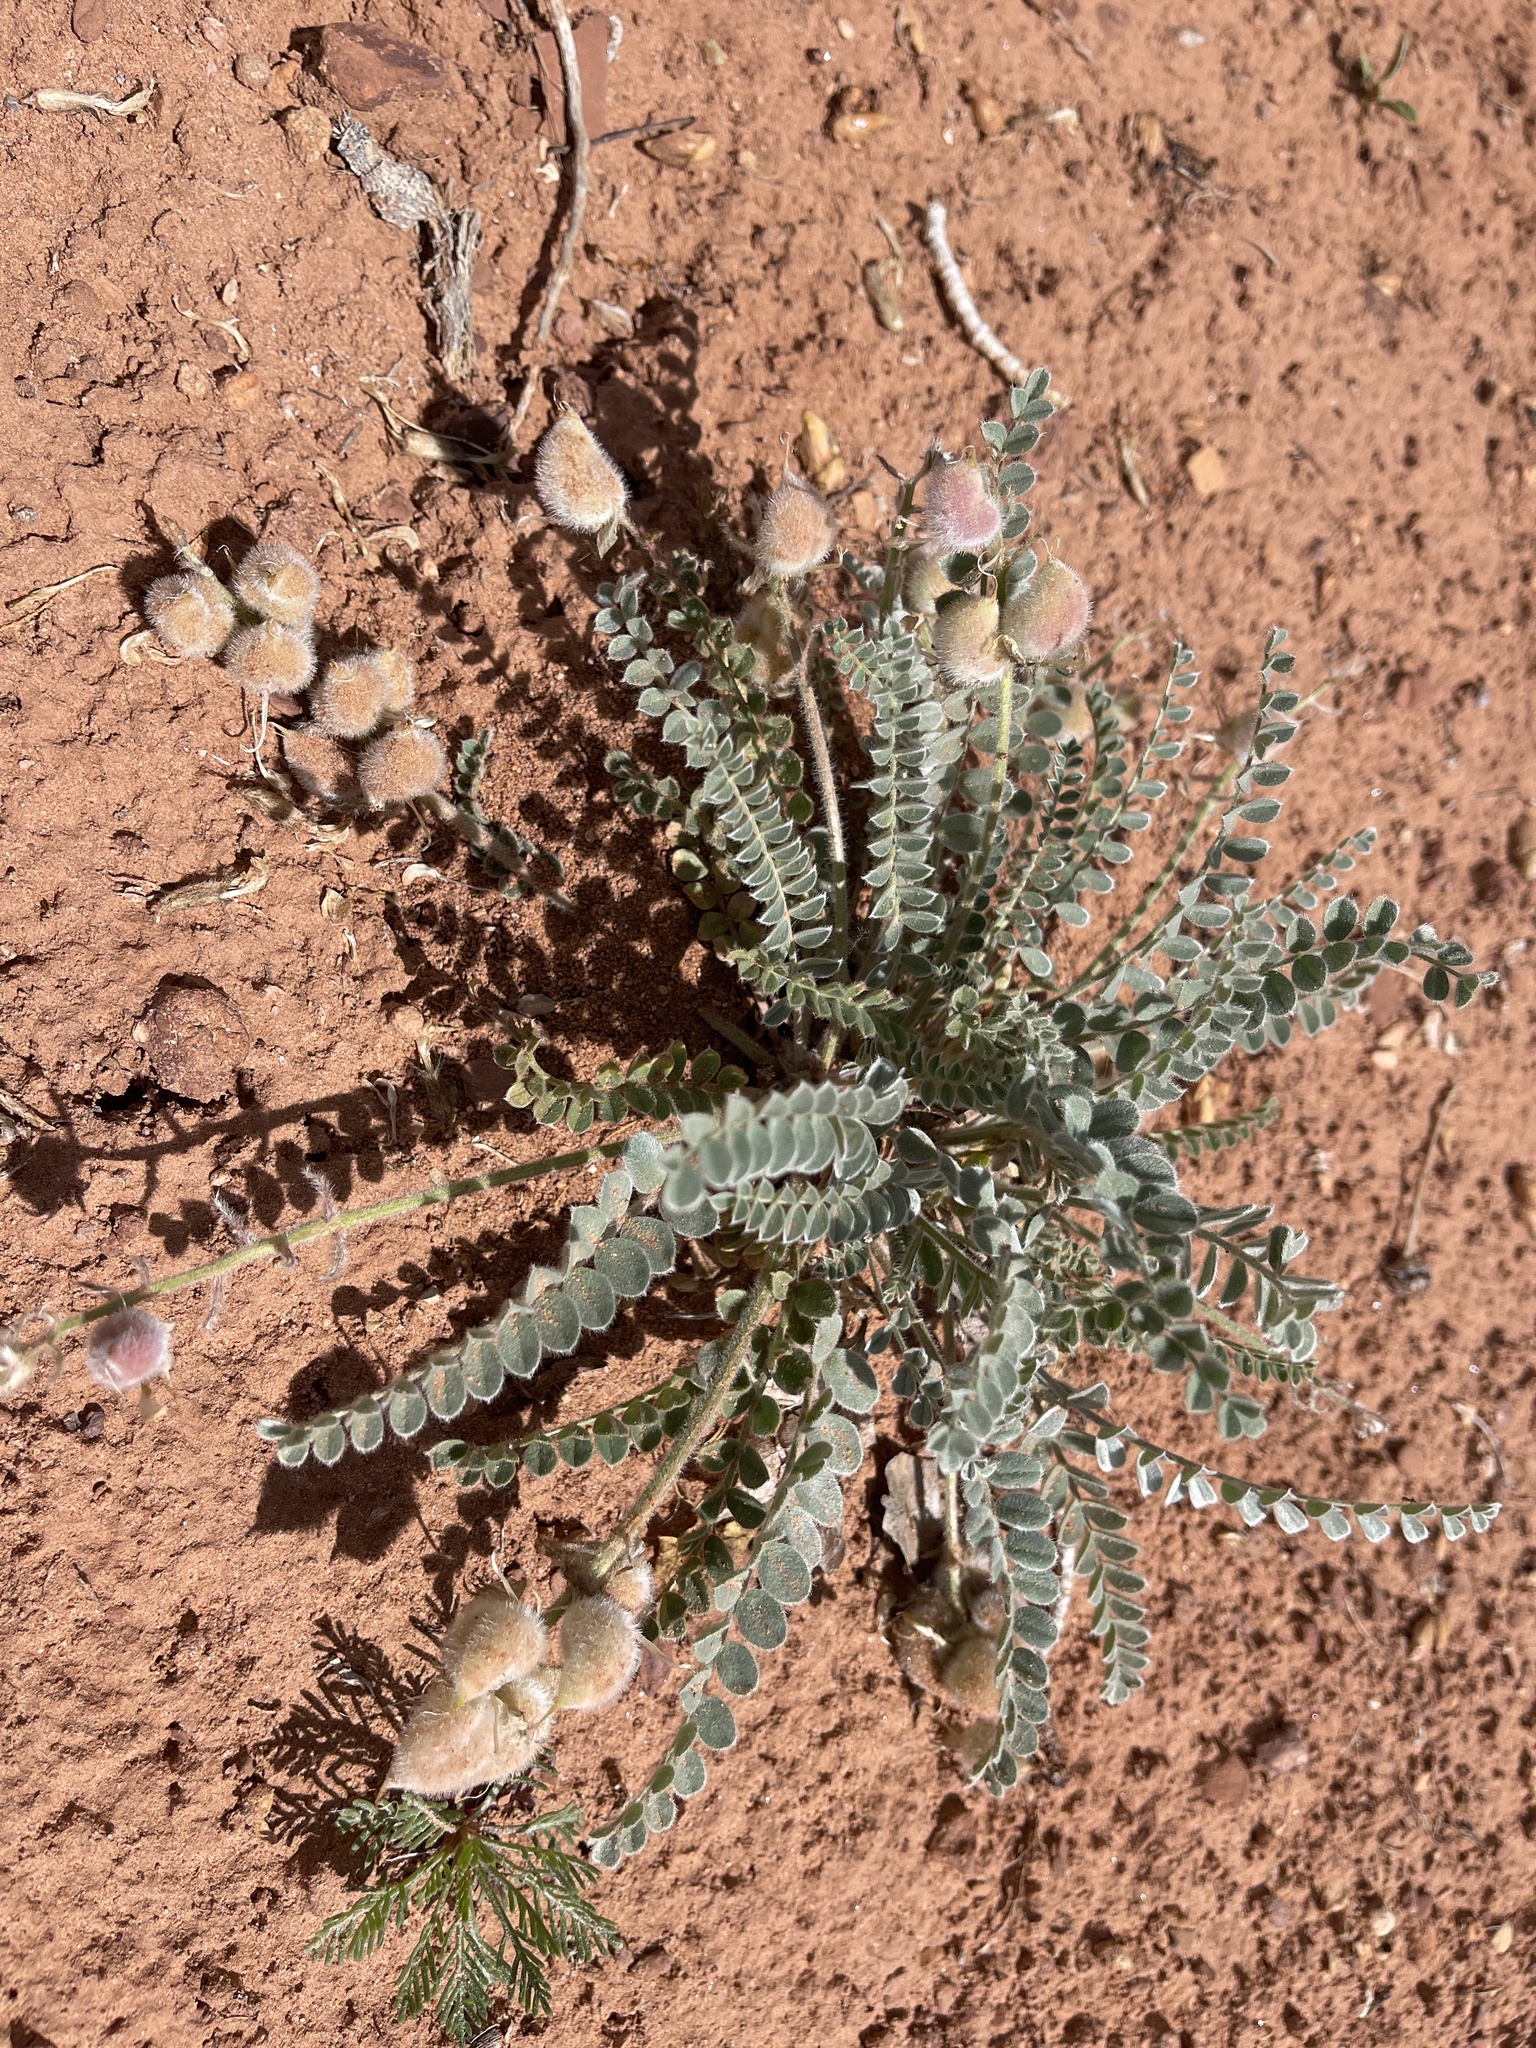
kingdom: Plantae
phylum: Tracheophyta
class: Magnoliopsida
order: Fabales
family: Fabaceae
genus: Astragalus
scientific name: Astragalus mollissimus
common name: Woolly locoweed
